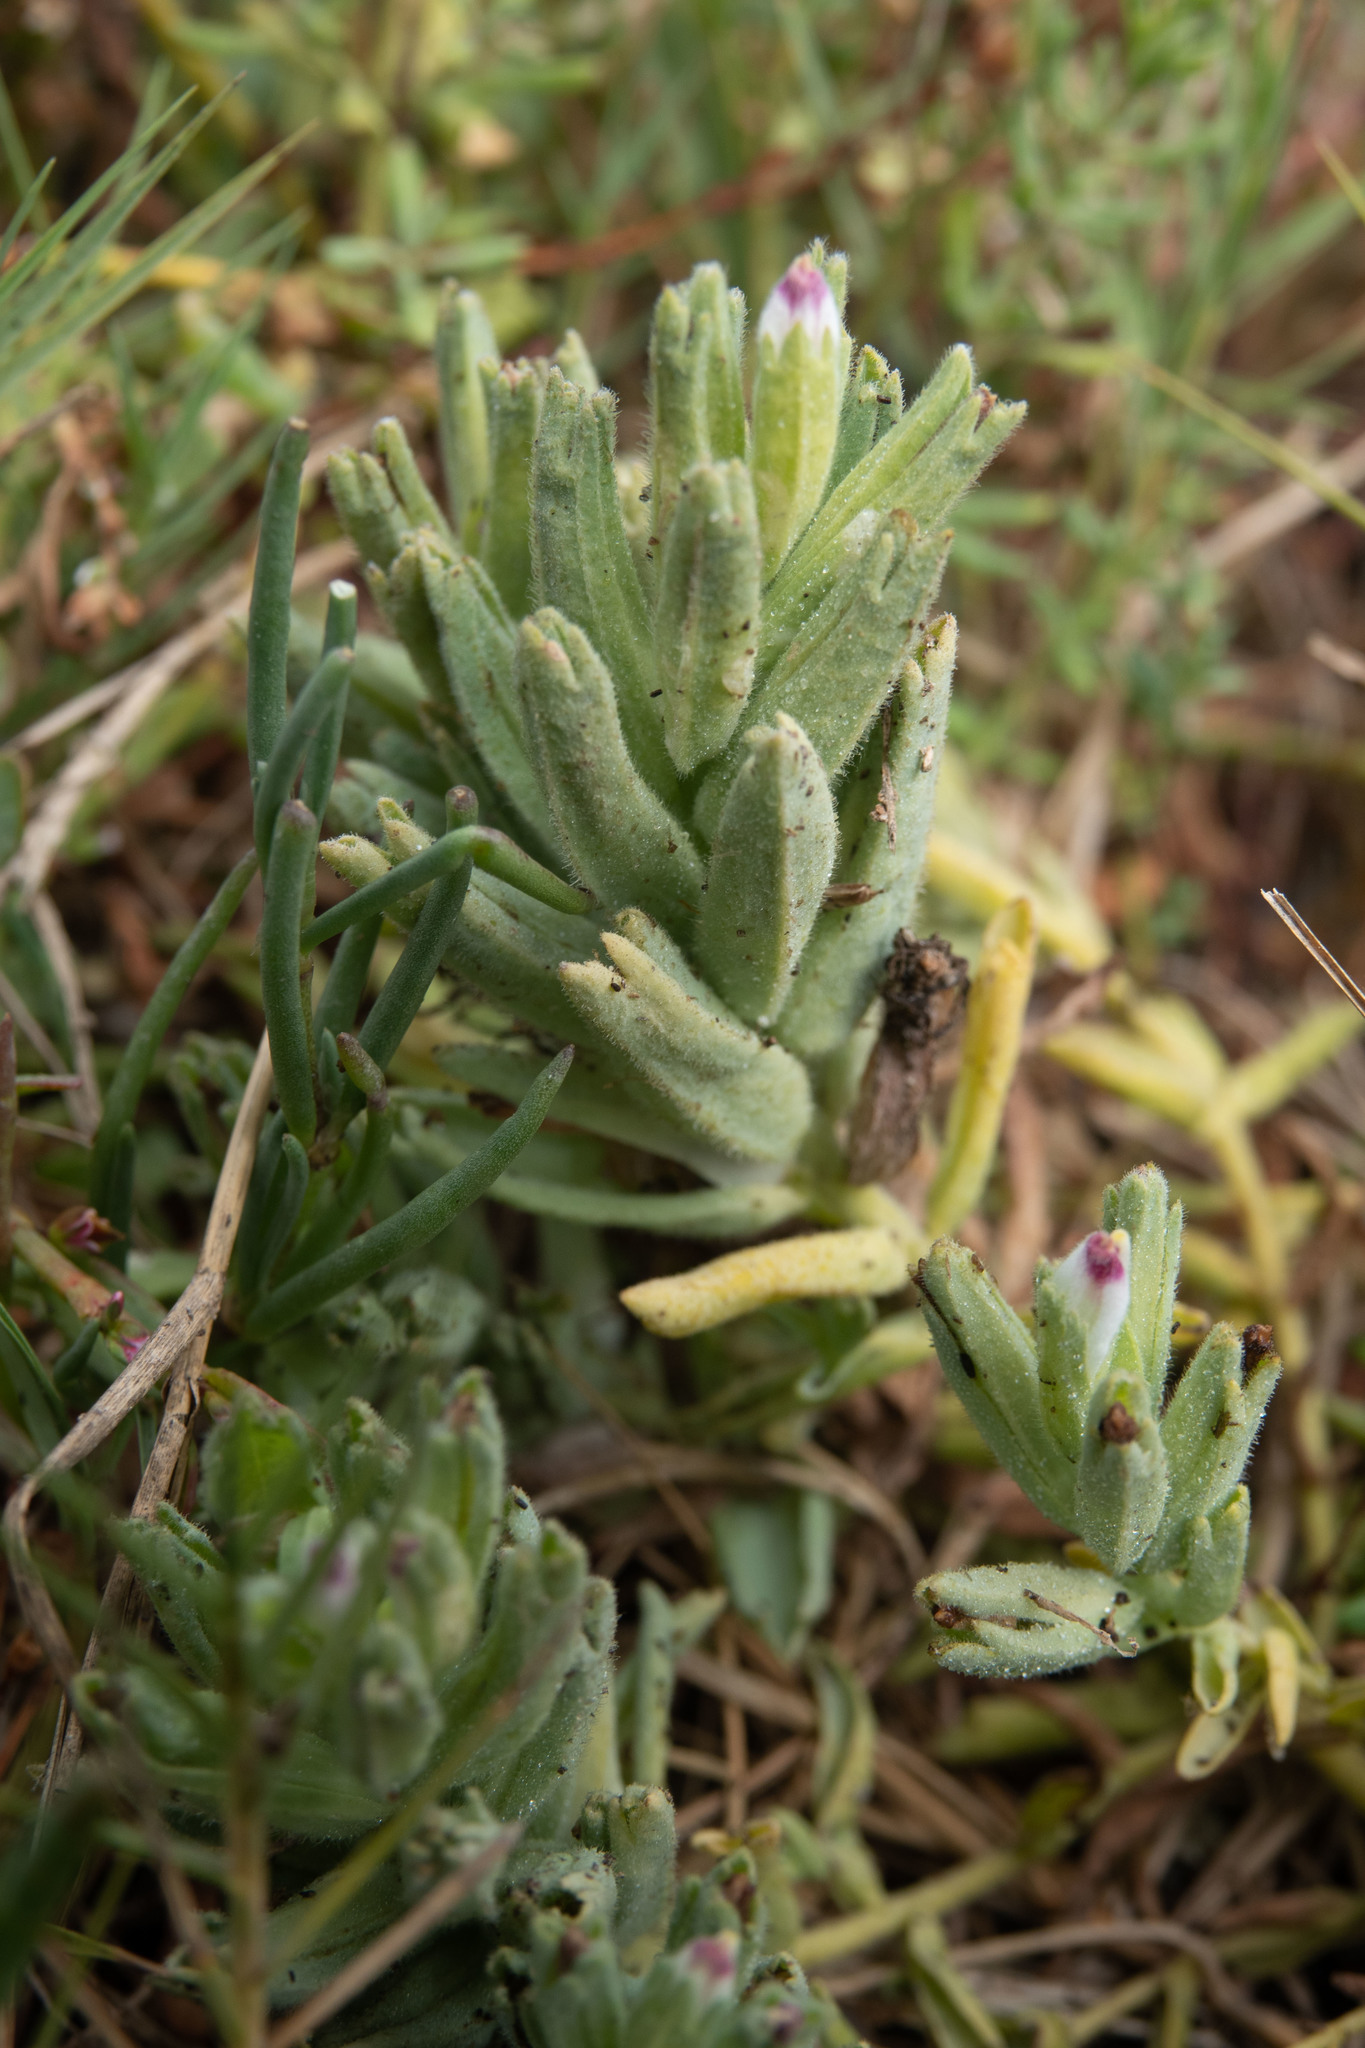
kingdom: Plantae
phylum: Tracheophyta
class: Magnoliopsida
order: Lamiales
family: Orobanchaceae
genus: Chloropyron
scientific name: Chloropyron maritimum
